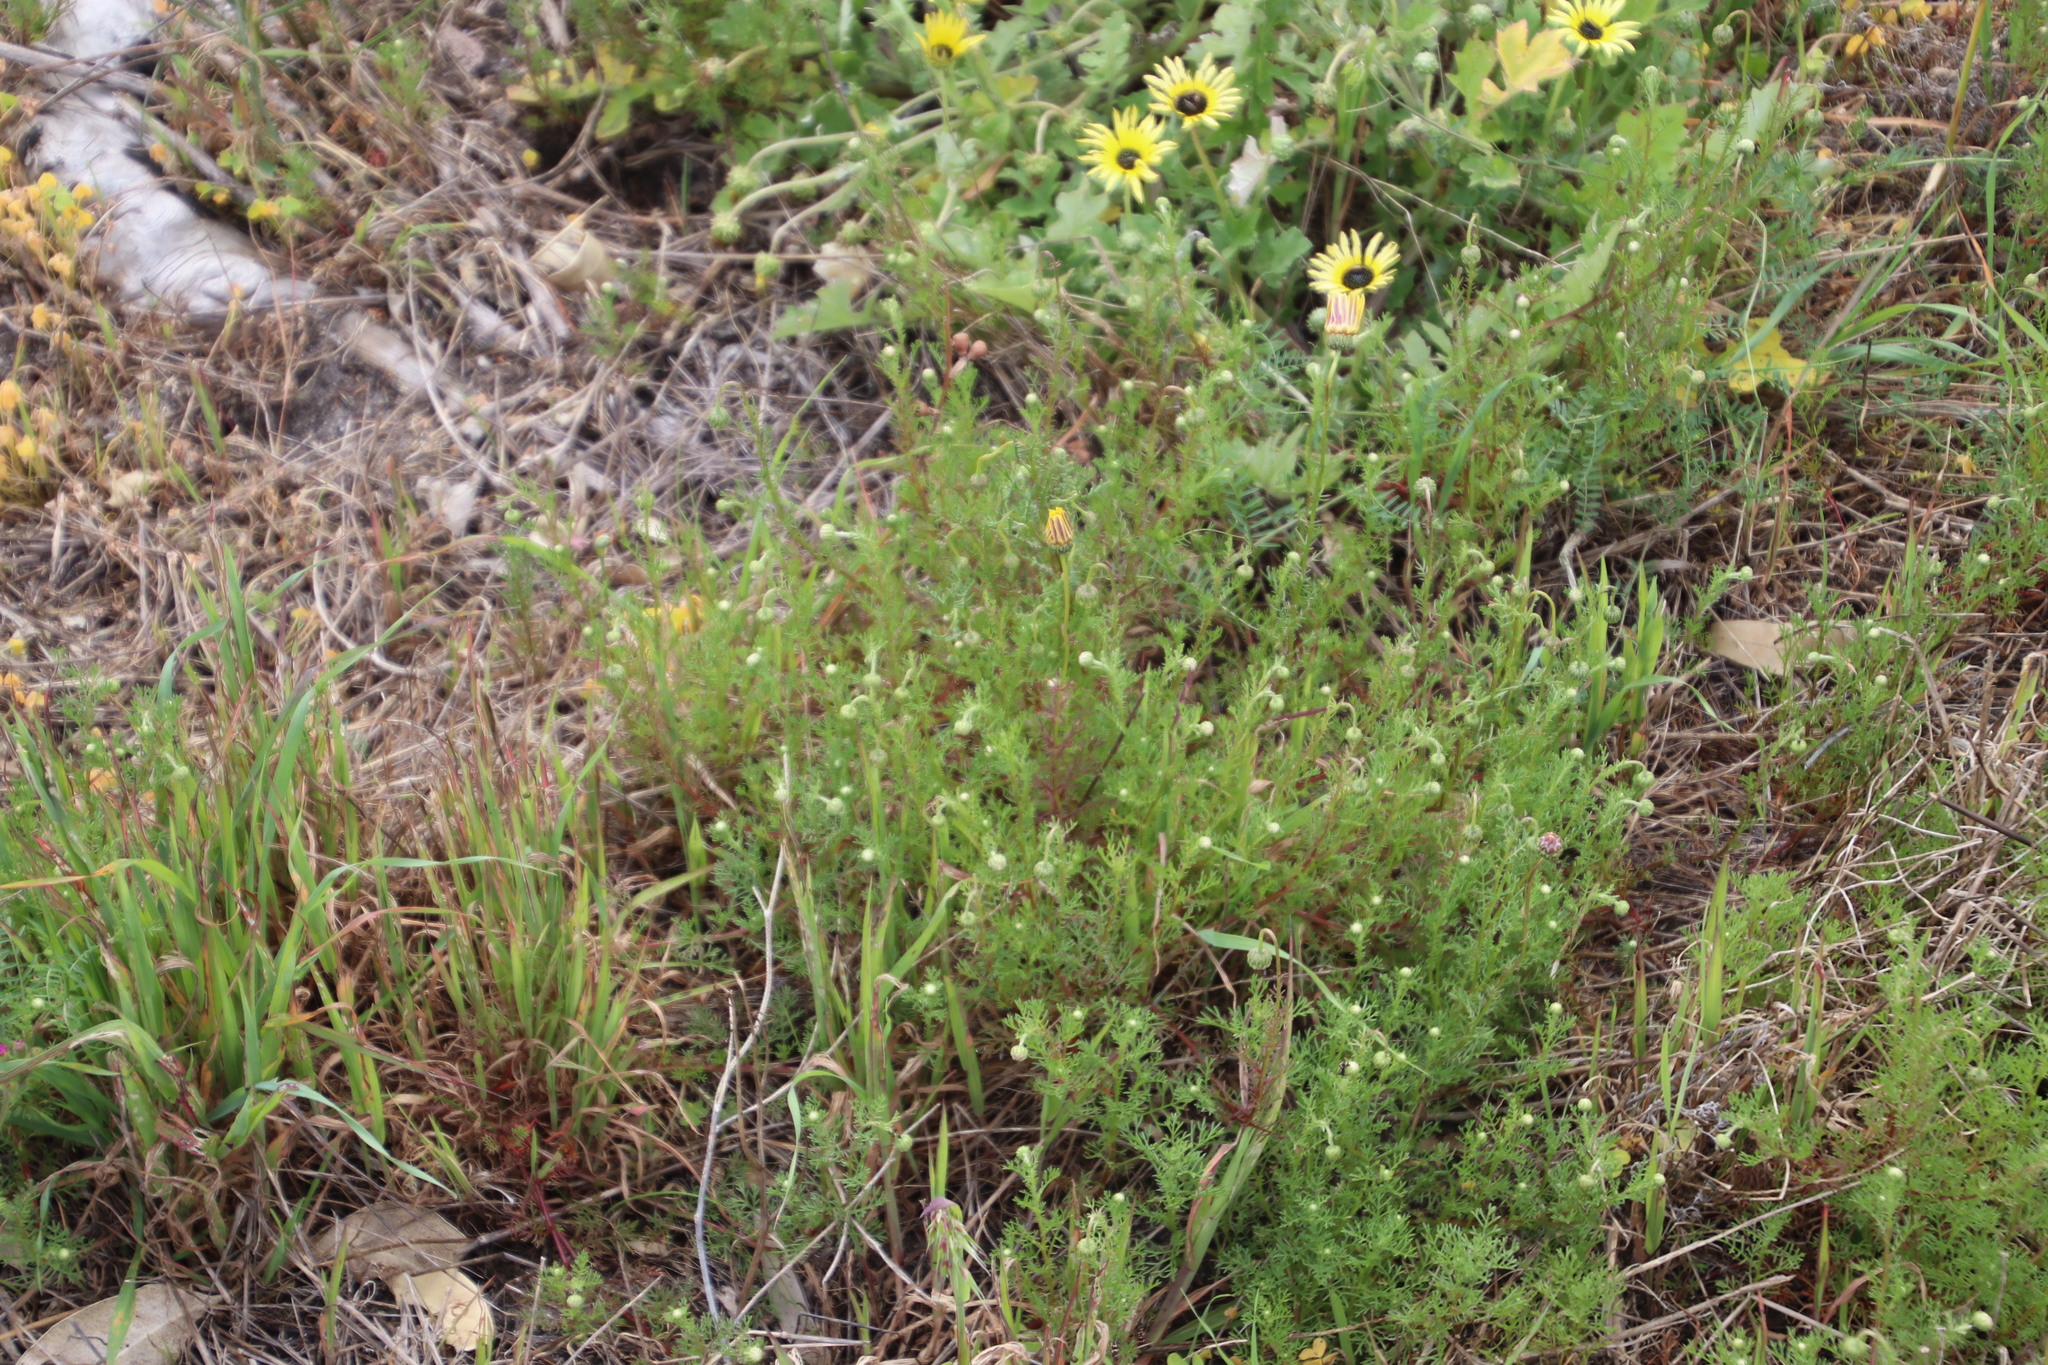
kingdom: Plantae
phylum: Tracheophyta
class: Magnoliopsida
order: Asterales
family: Asteraceae
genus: Ursinia
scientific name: Ursinia anthemoides
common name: Ursinia
